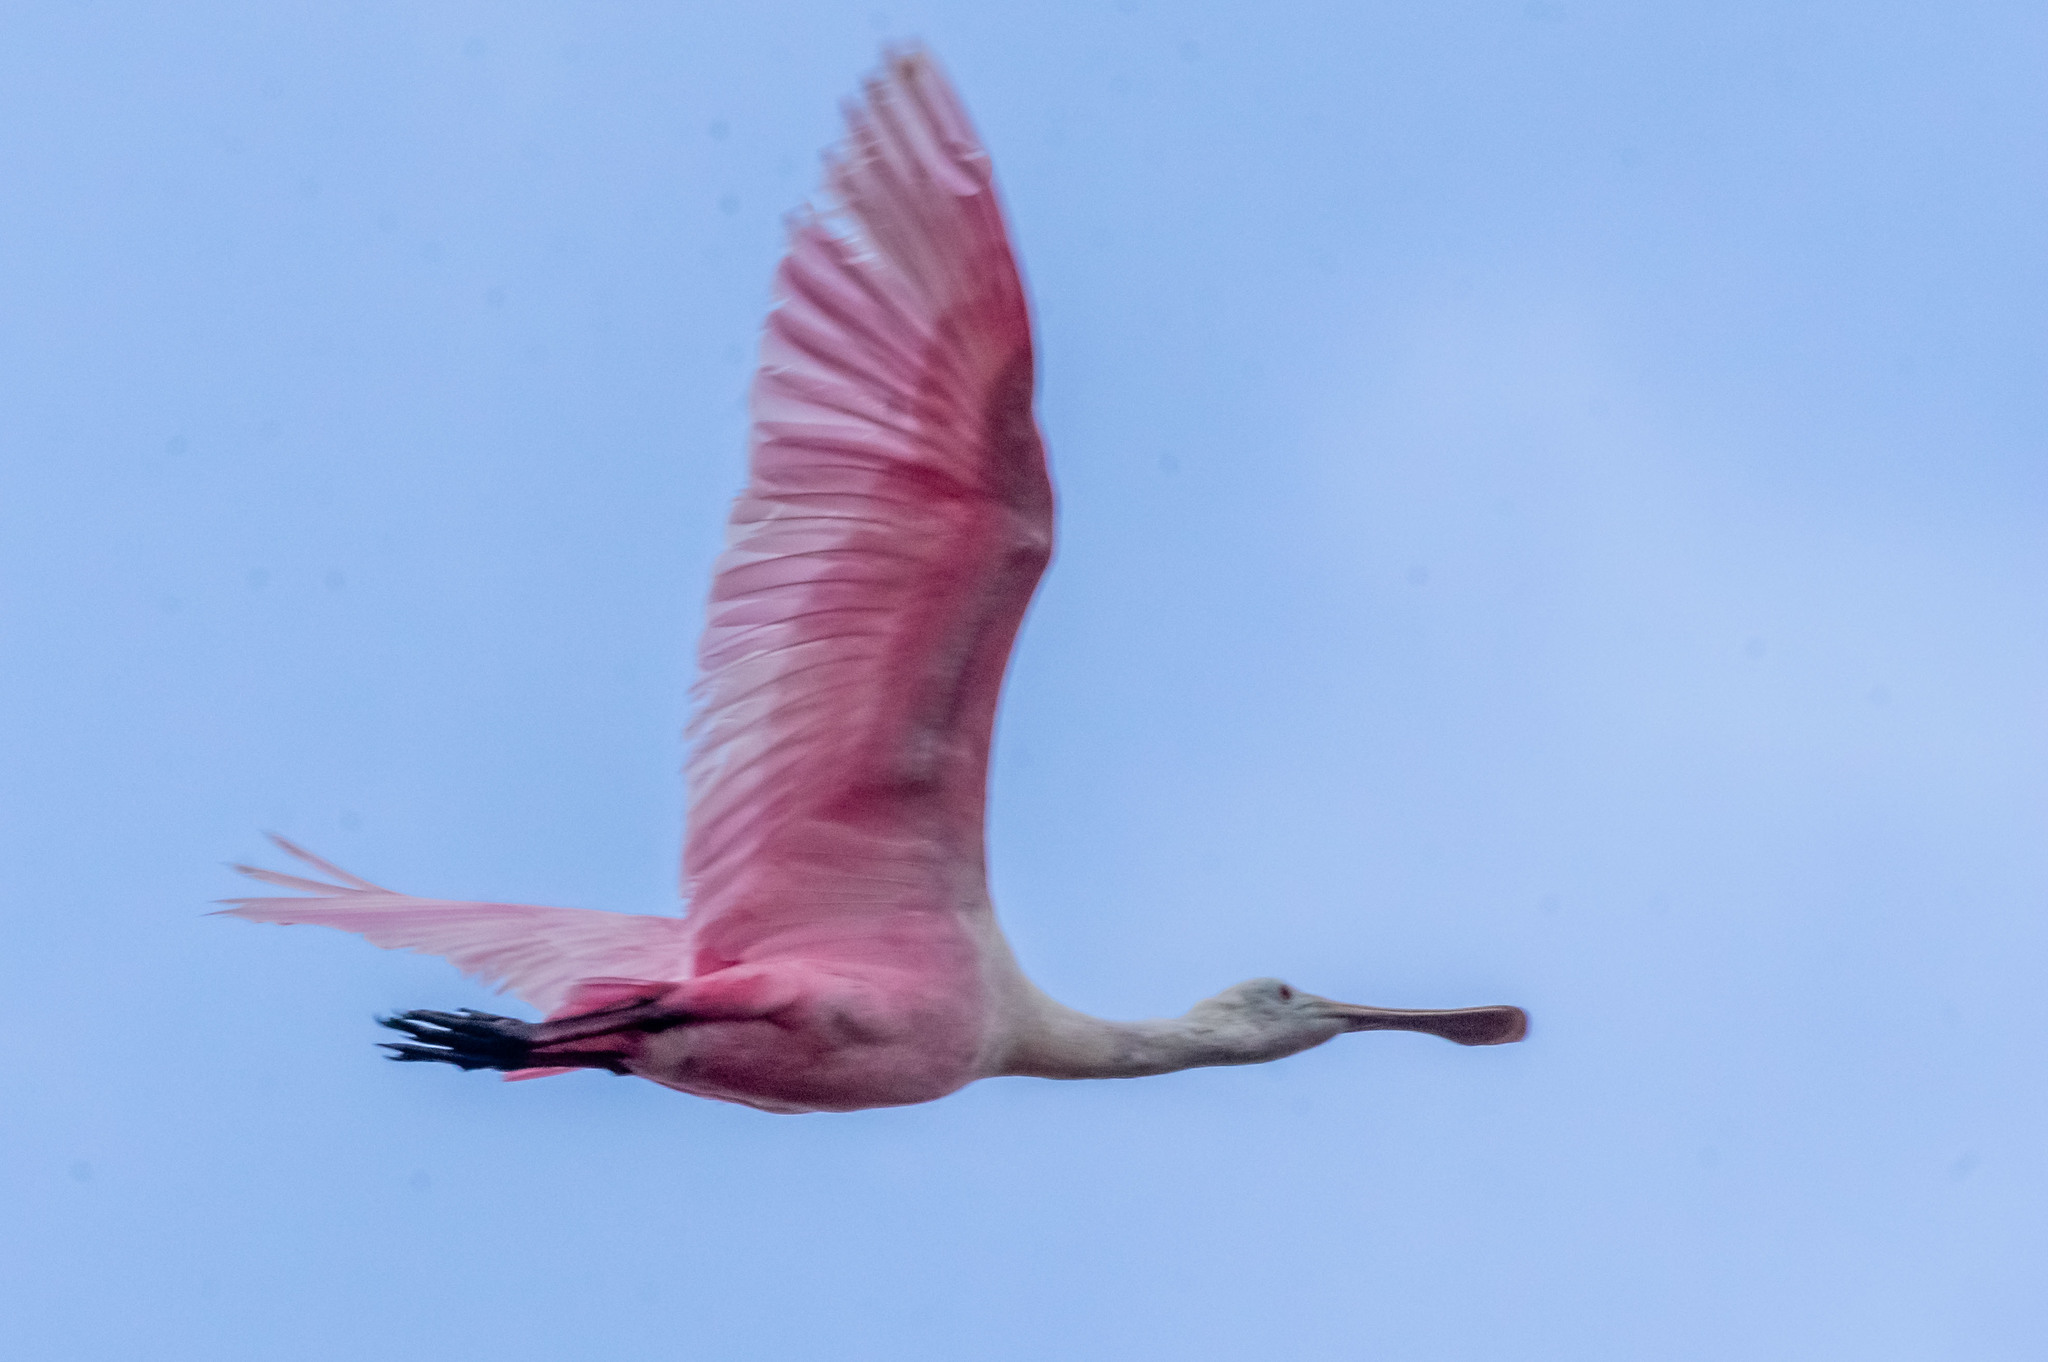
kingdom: Animalia
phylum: Chordata
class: Aves
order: Pelecaniformes
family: Threskiornithidae
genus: Platalea
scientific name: Platalea ajaja
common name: Roseate spoonbill
